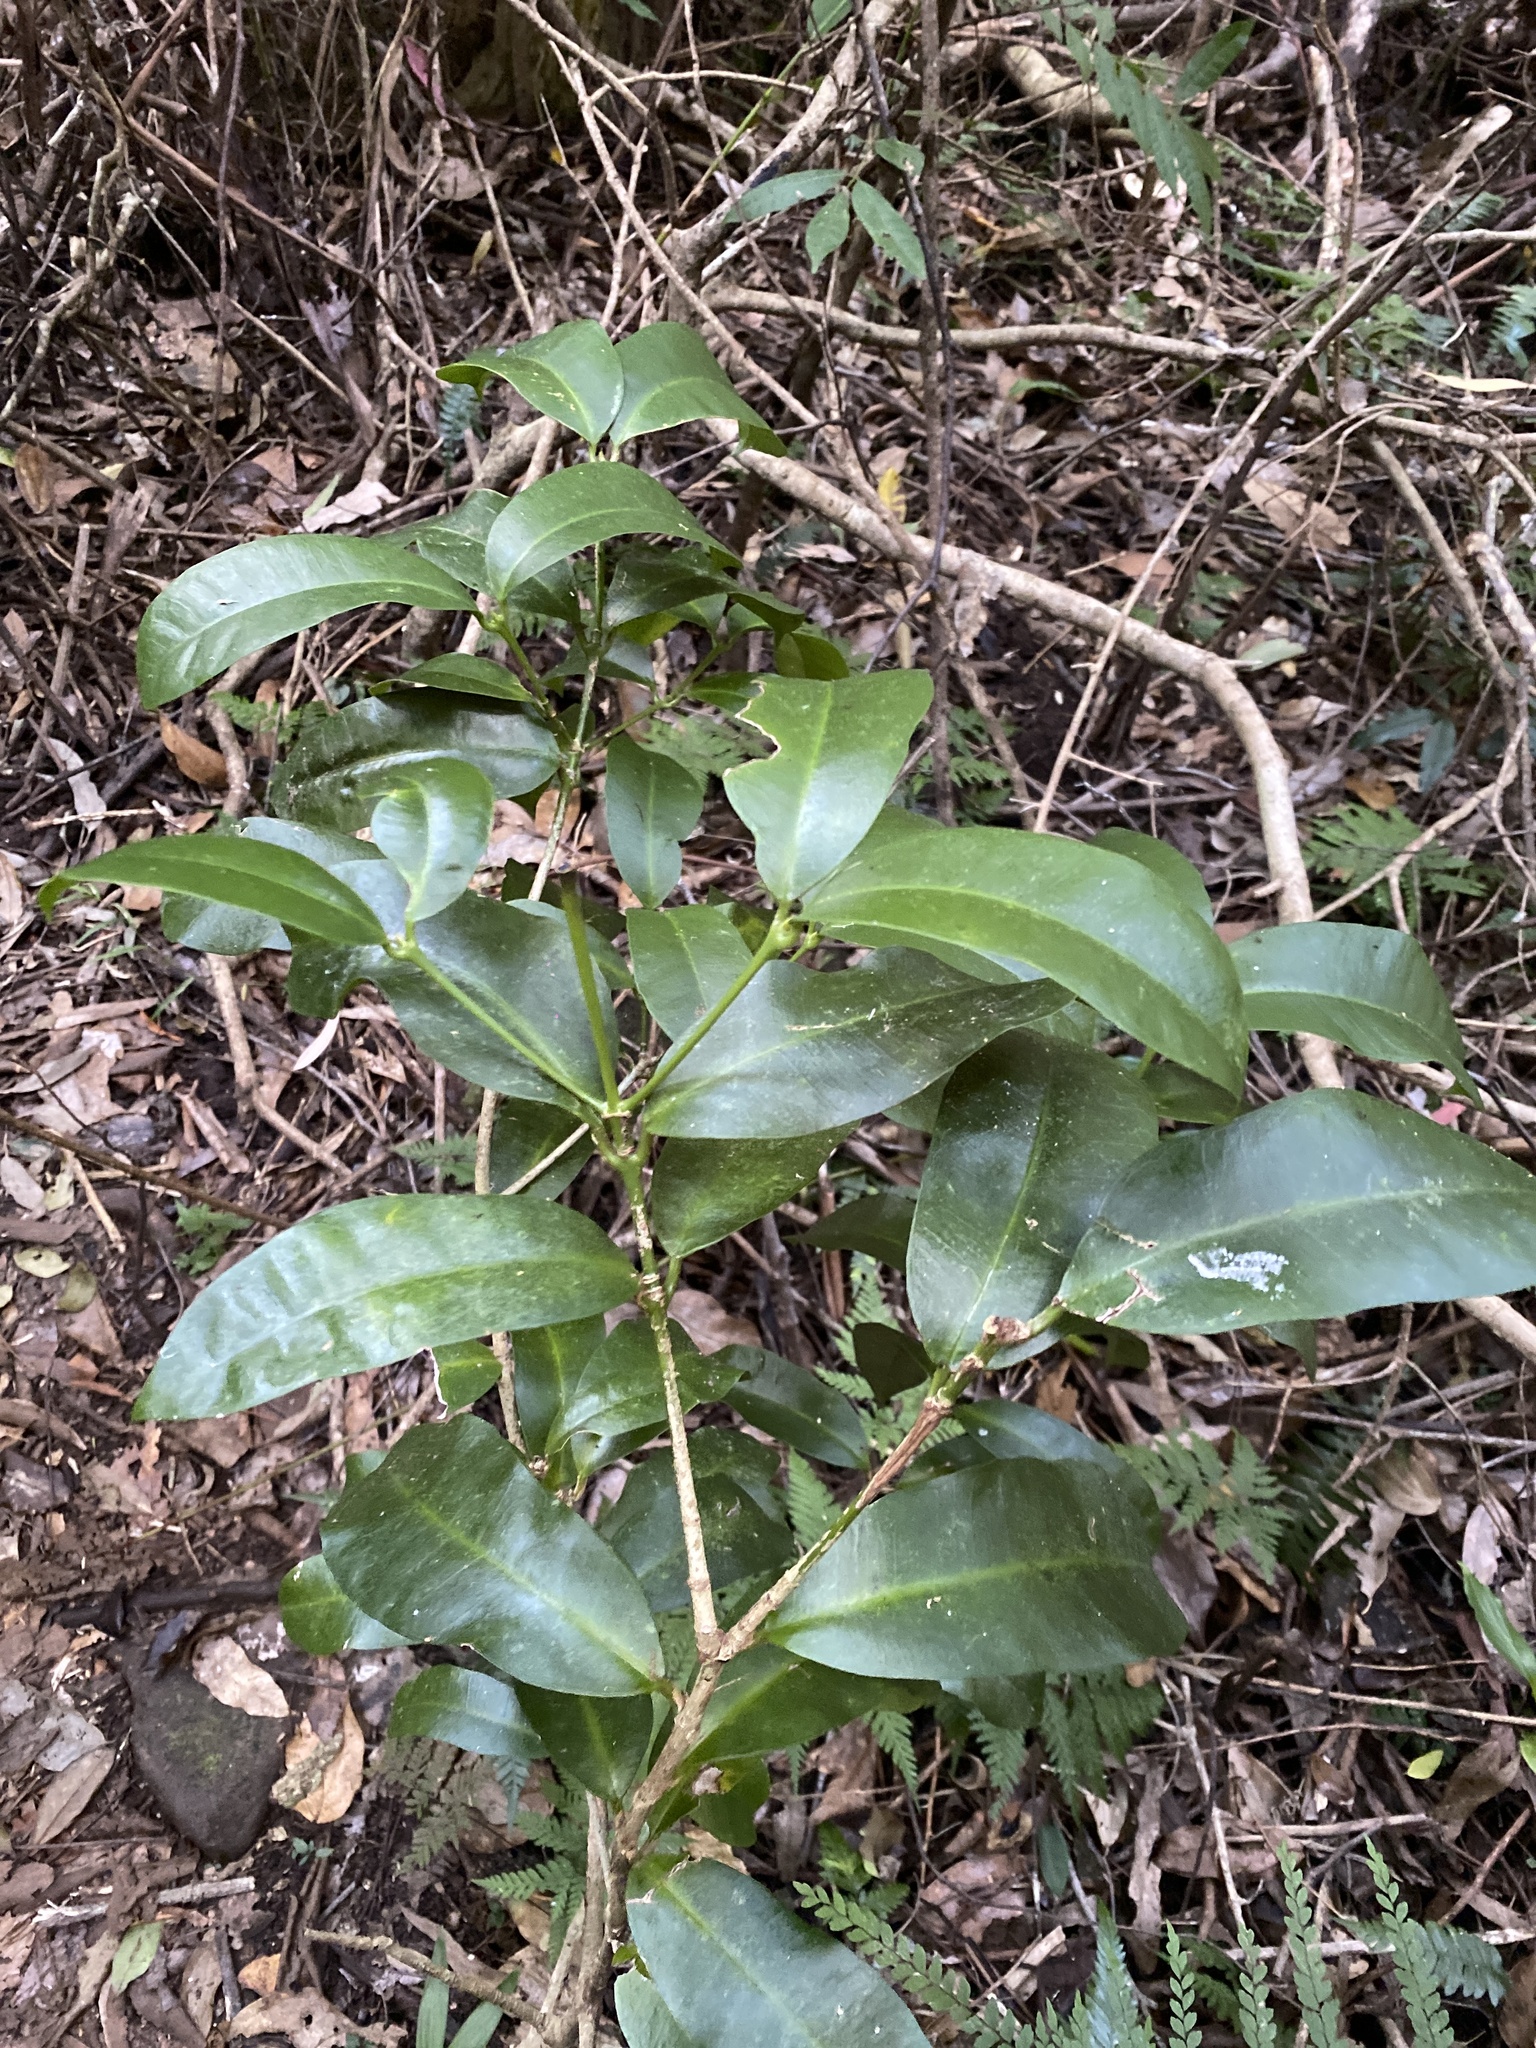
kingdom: Plantae
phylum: Tracheophyta
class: Magnoliopsida
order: Malpighiales
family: Euphorbiaceae
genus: Baloghia
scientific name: Baloghia inophylla
